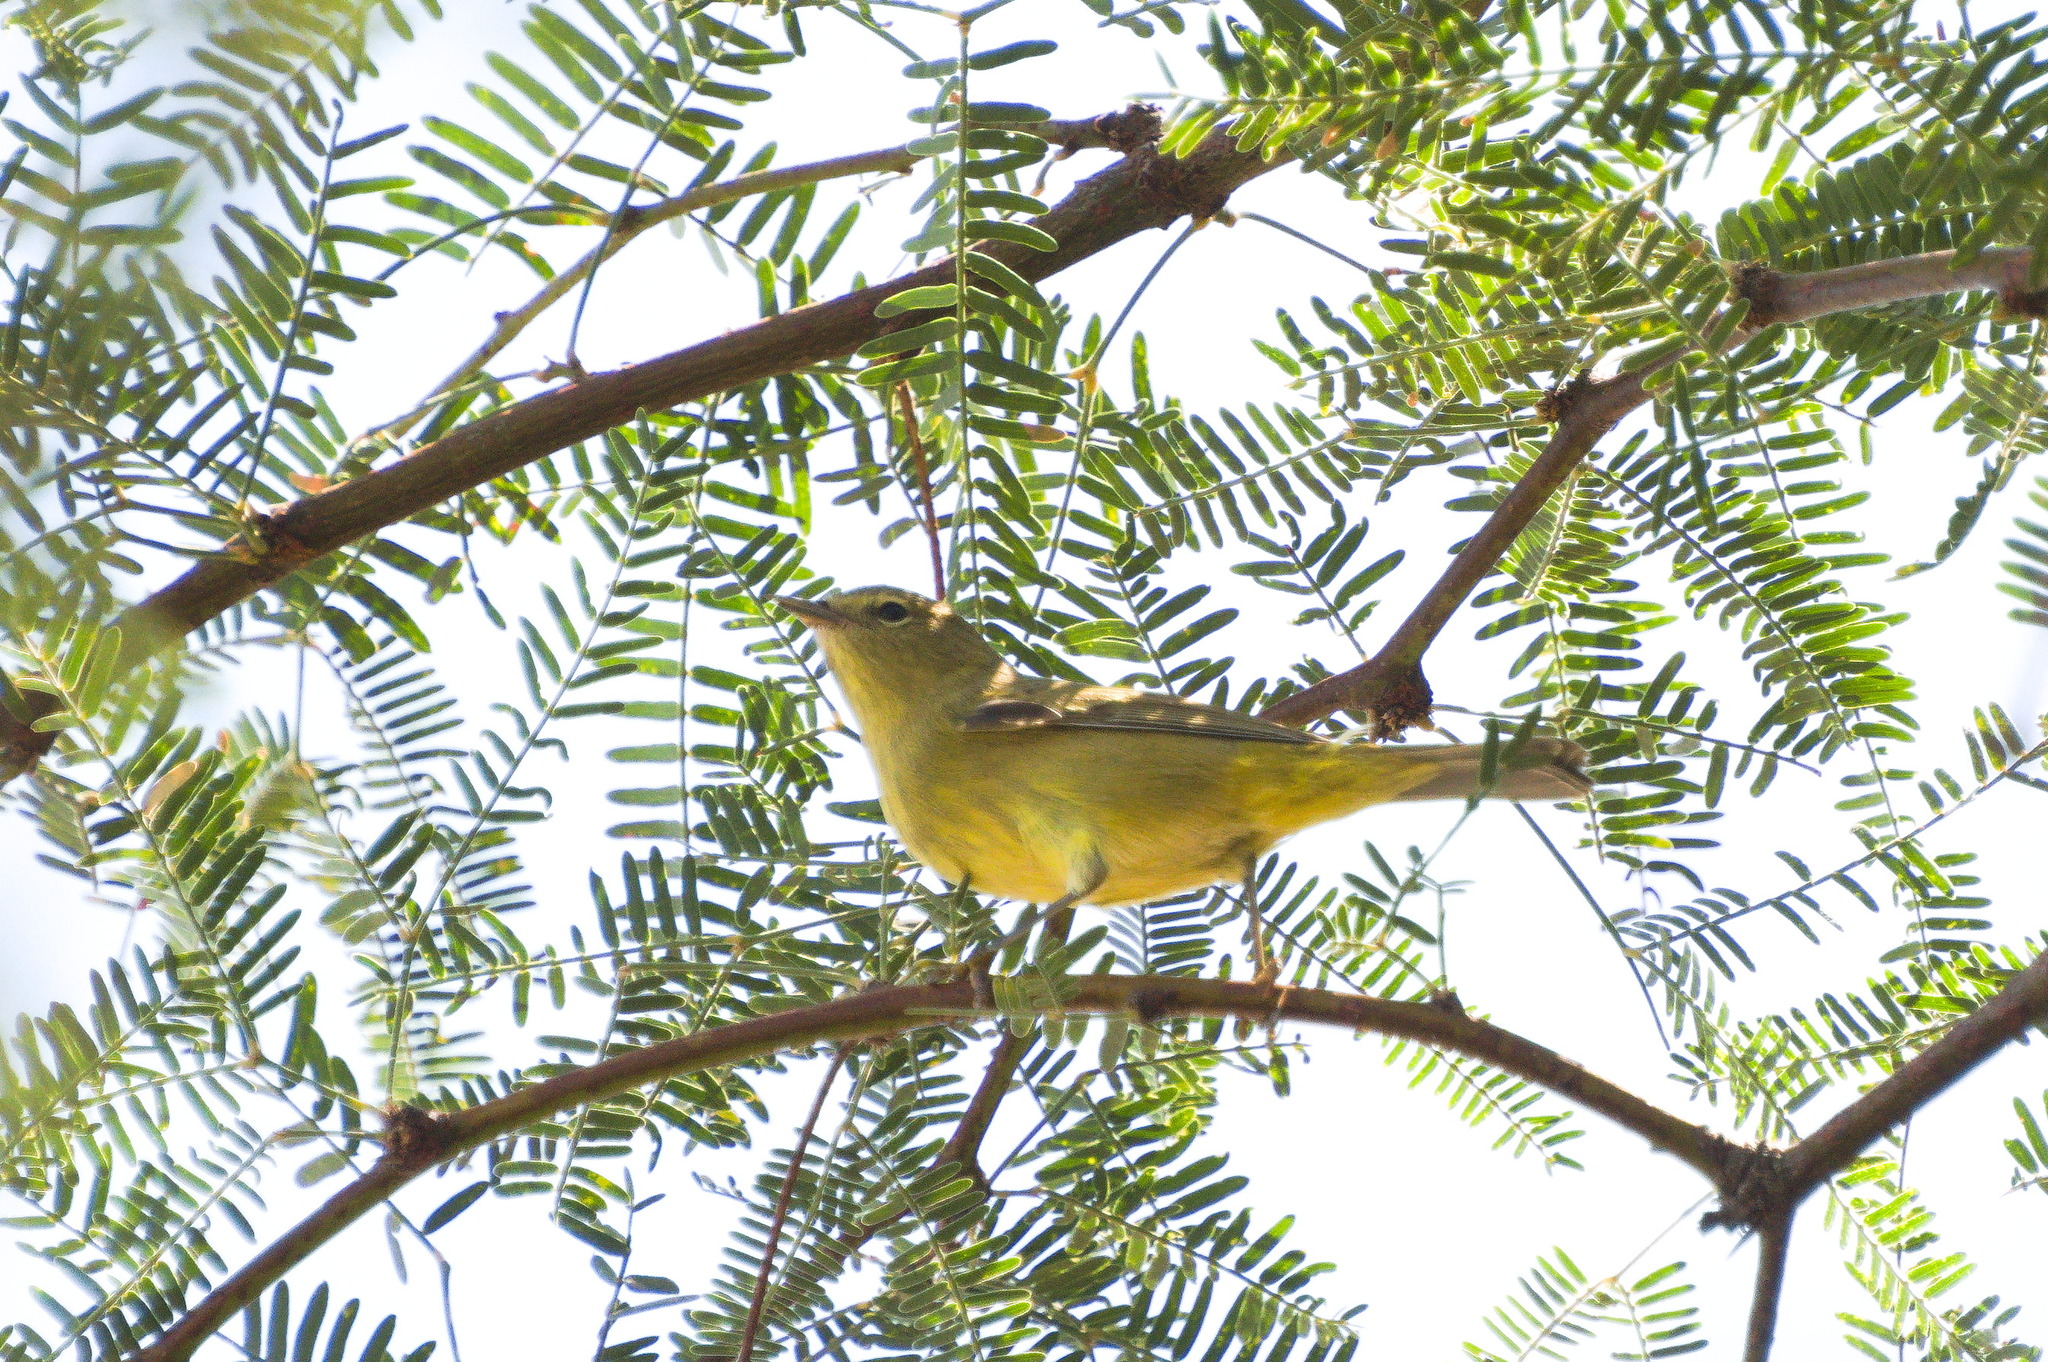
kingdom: Animalia
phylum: Chordata
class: Aves
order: Passeriformes
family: Parulidae
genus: Leiothlypis
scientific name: Leiothlypis celata
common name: Orange-crowned warbler
